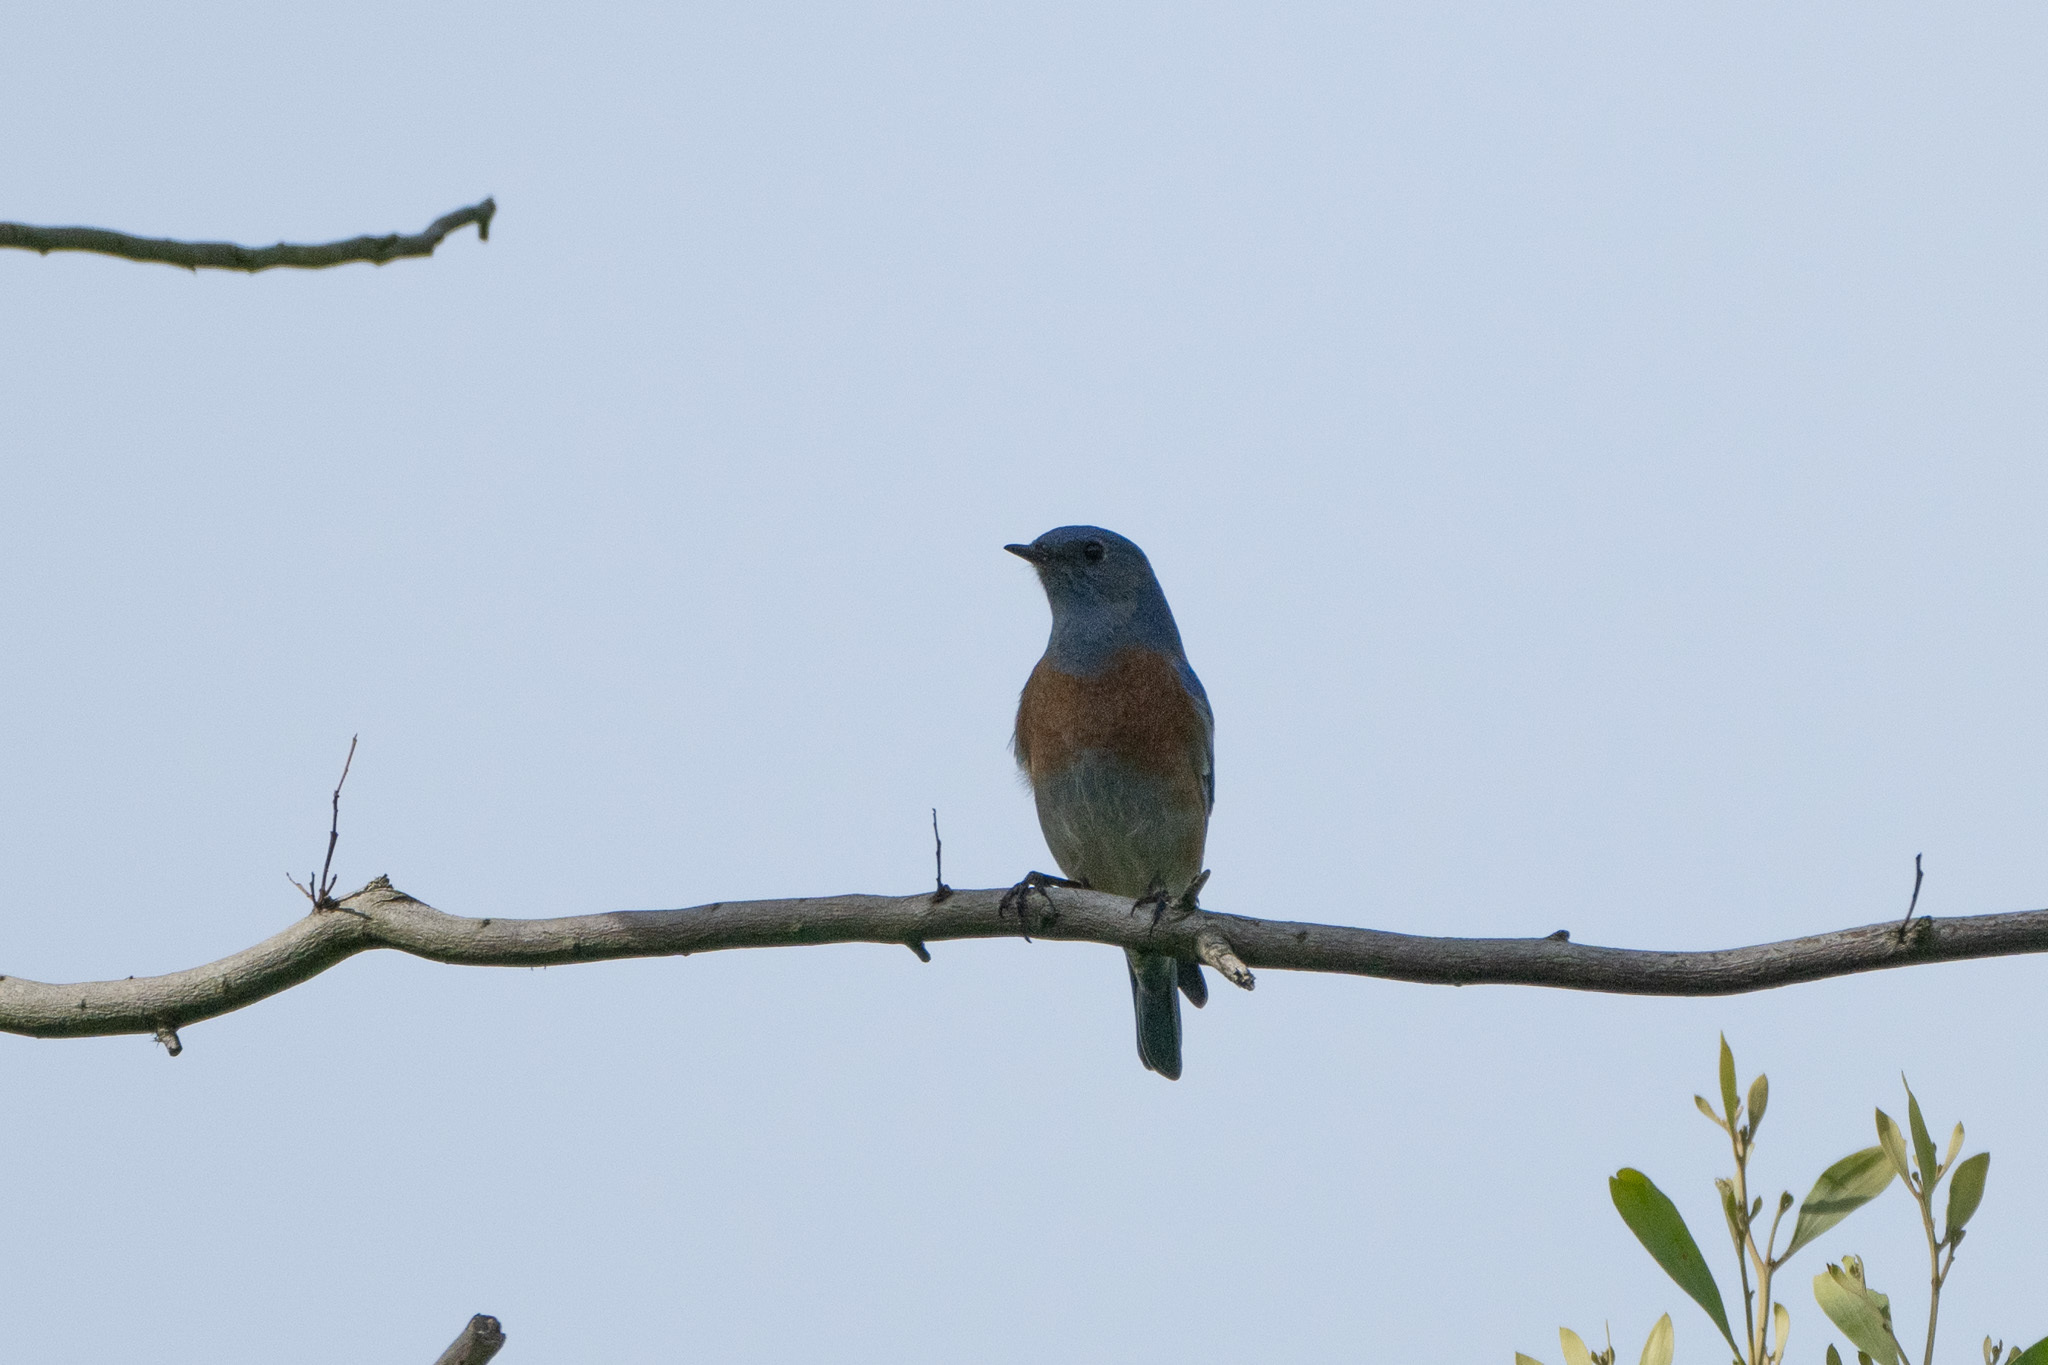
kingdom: Animalia
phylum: Chordata
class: Aves
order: Passeriformes
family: Turdidae
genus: Sialia
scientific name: Sialia mexicana
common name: Western bluebird
